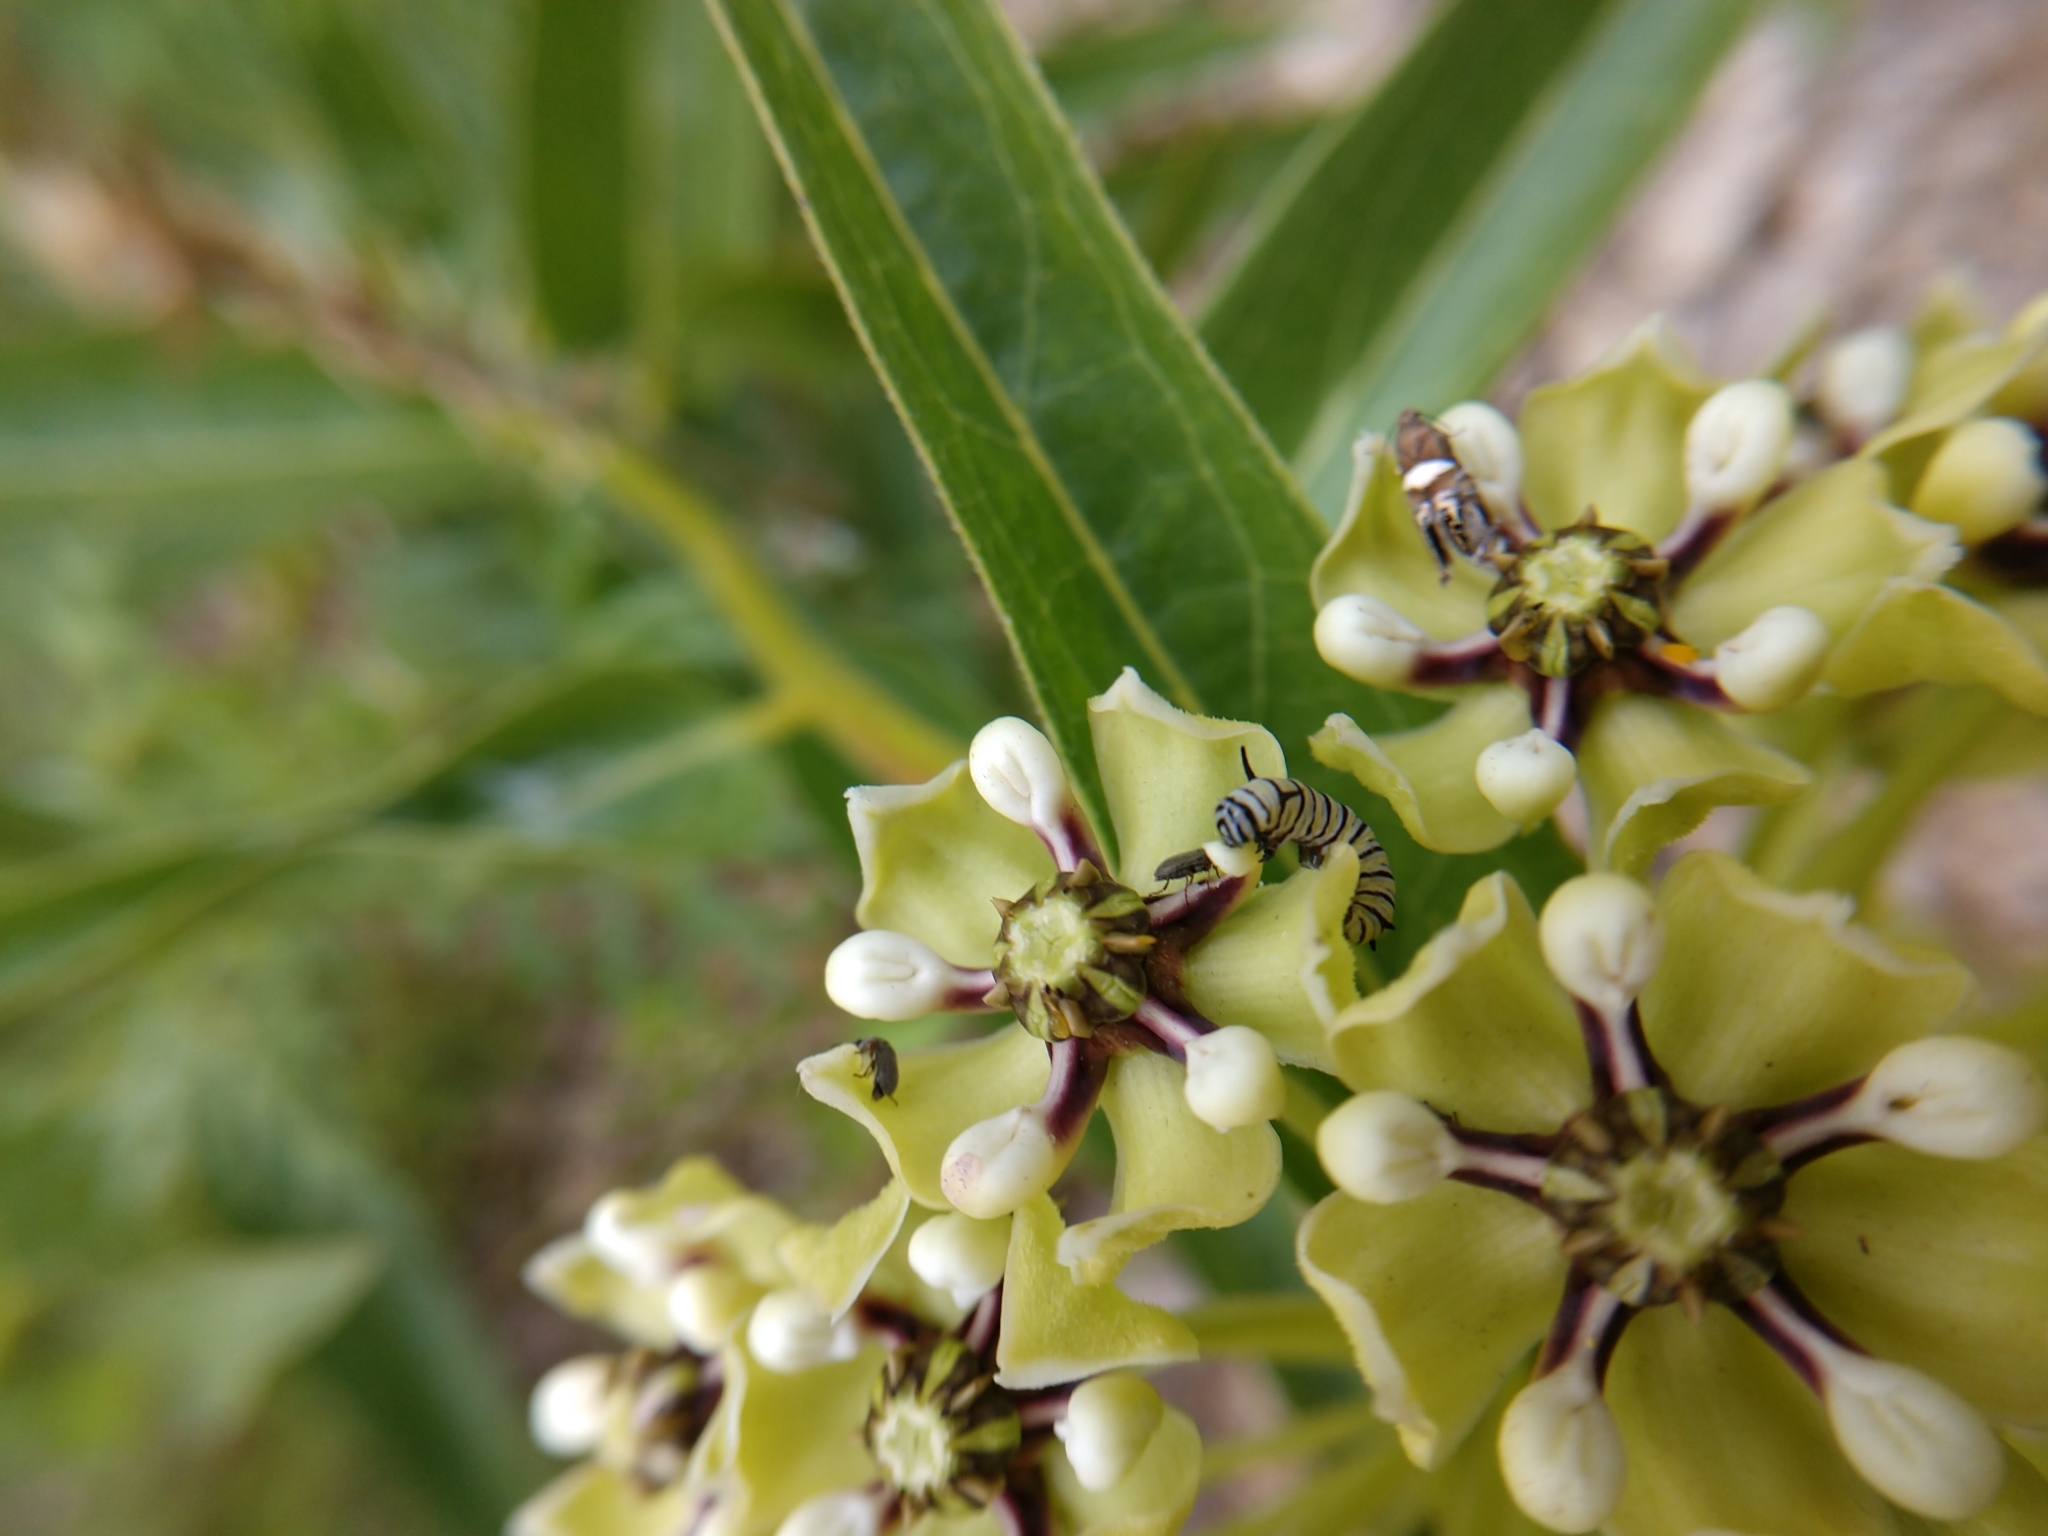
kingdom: Animalia
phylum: Arthropoda
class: Insecta
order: Lepidoptera
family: Nymphalidae
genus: Danaus
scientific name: Danaus plexippus
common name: Monarch
